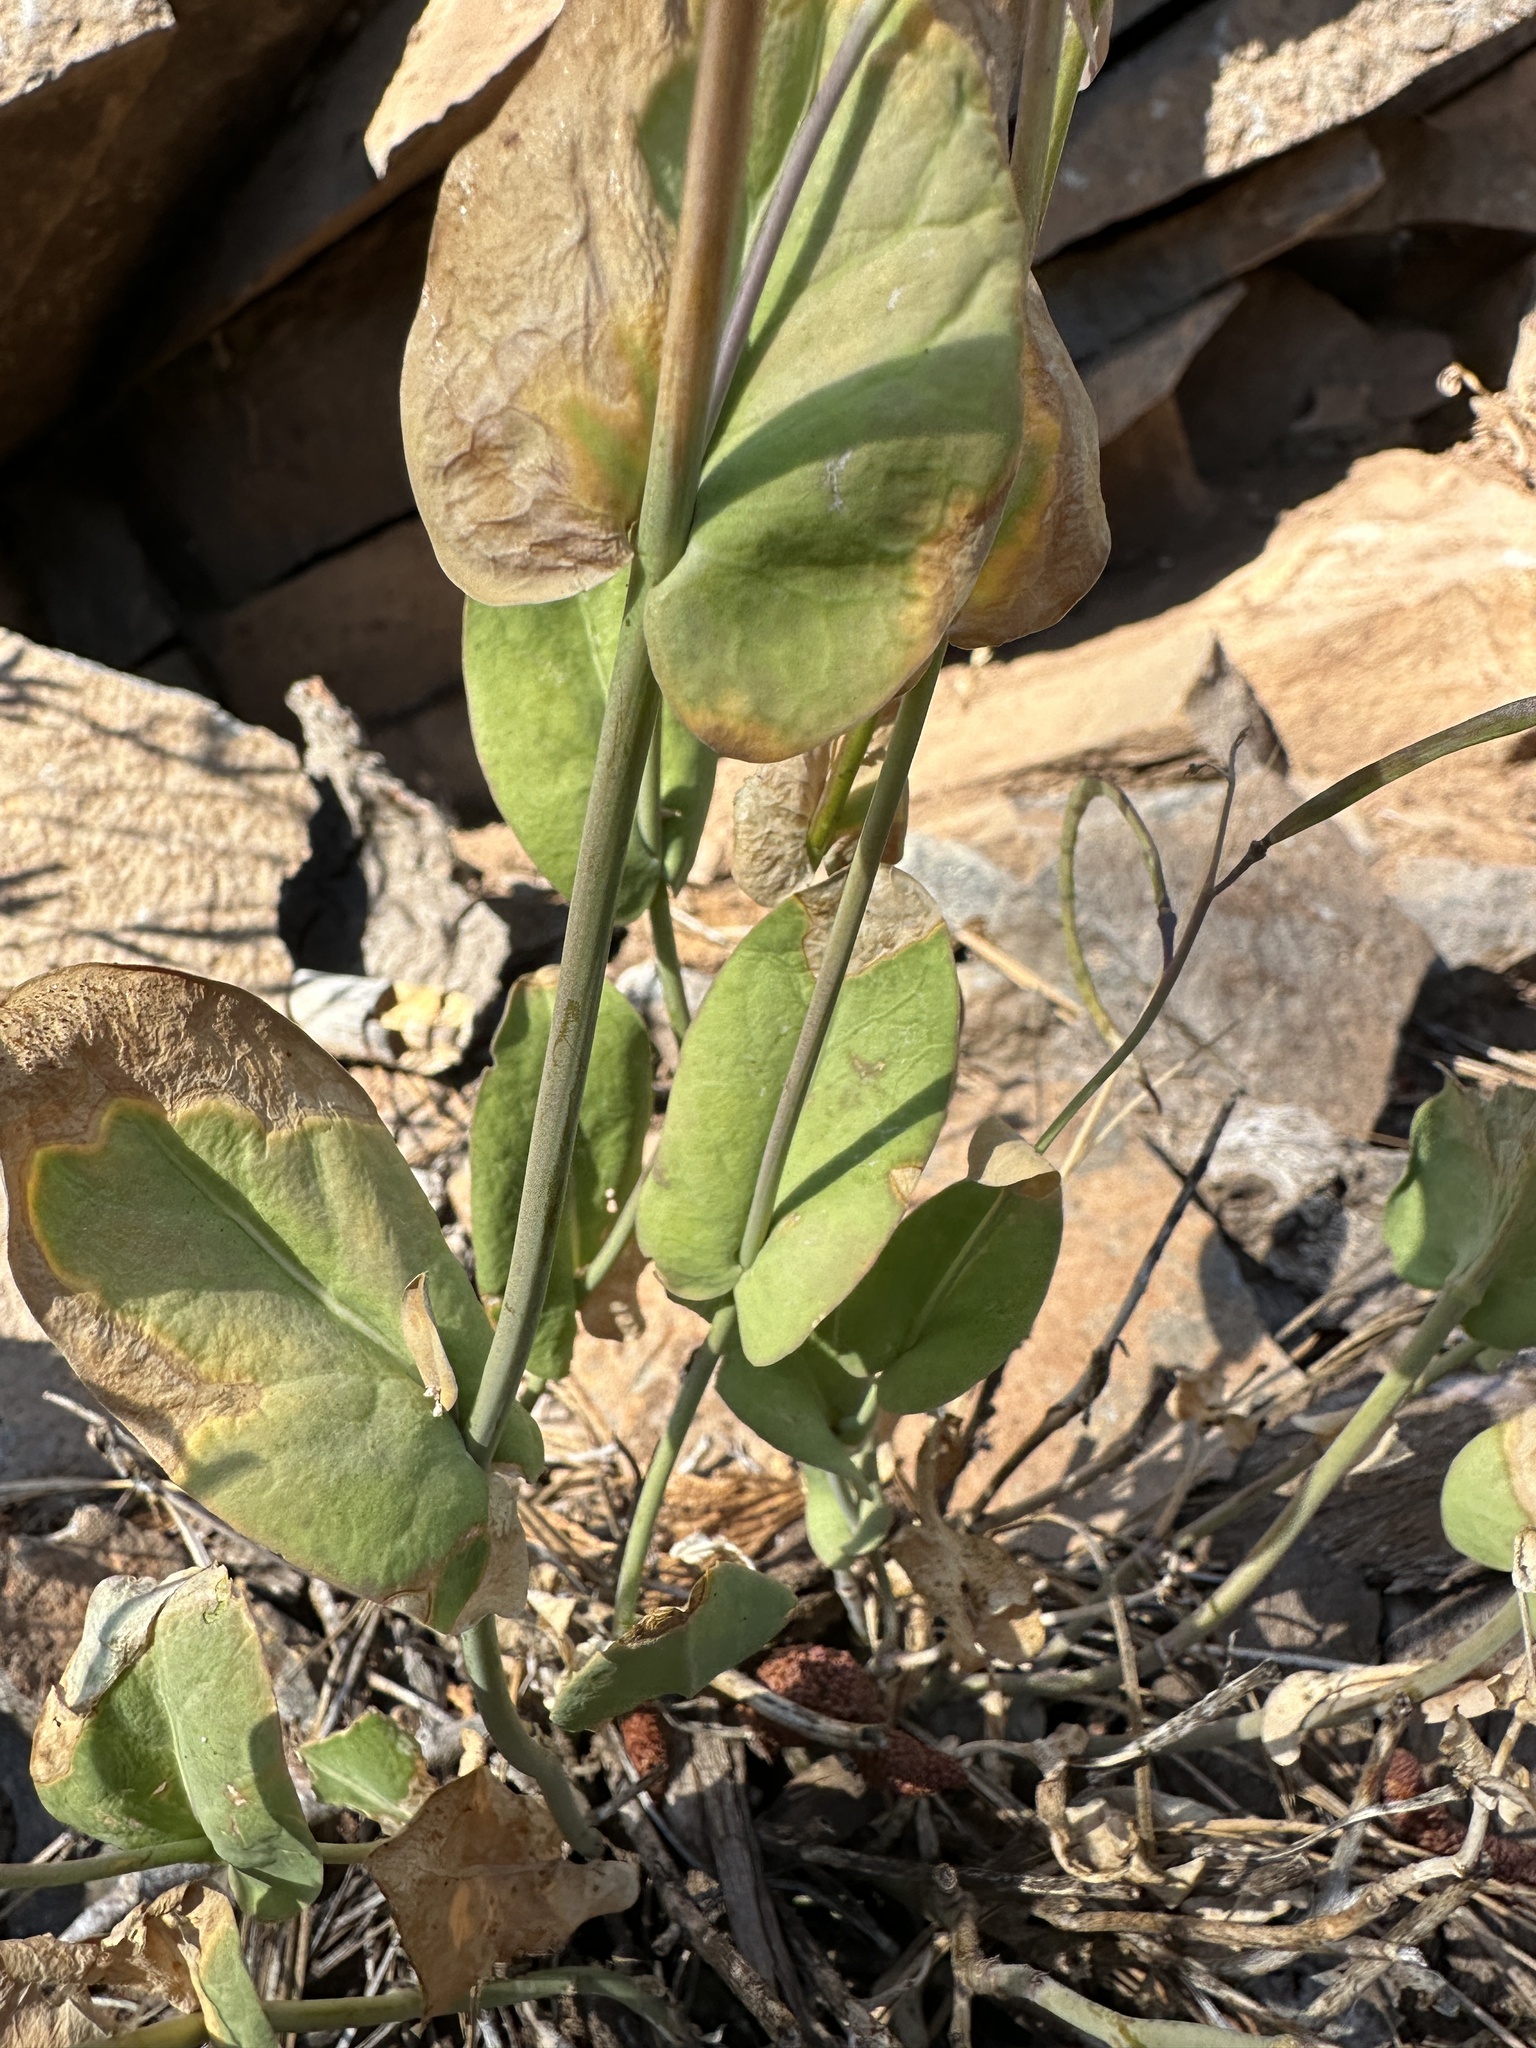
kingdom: Plantae
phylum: Tracheophyta
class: Magnoliopsida
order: Brassicales
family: Brassicaceae
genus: Streptanthus
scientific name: Streptanthus longisiliquus
